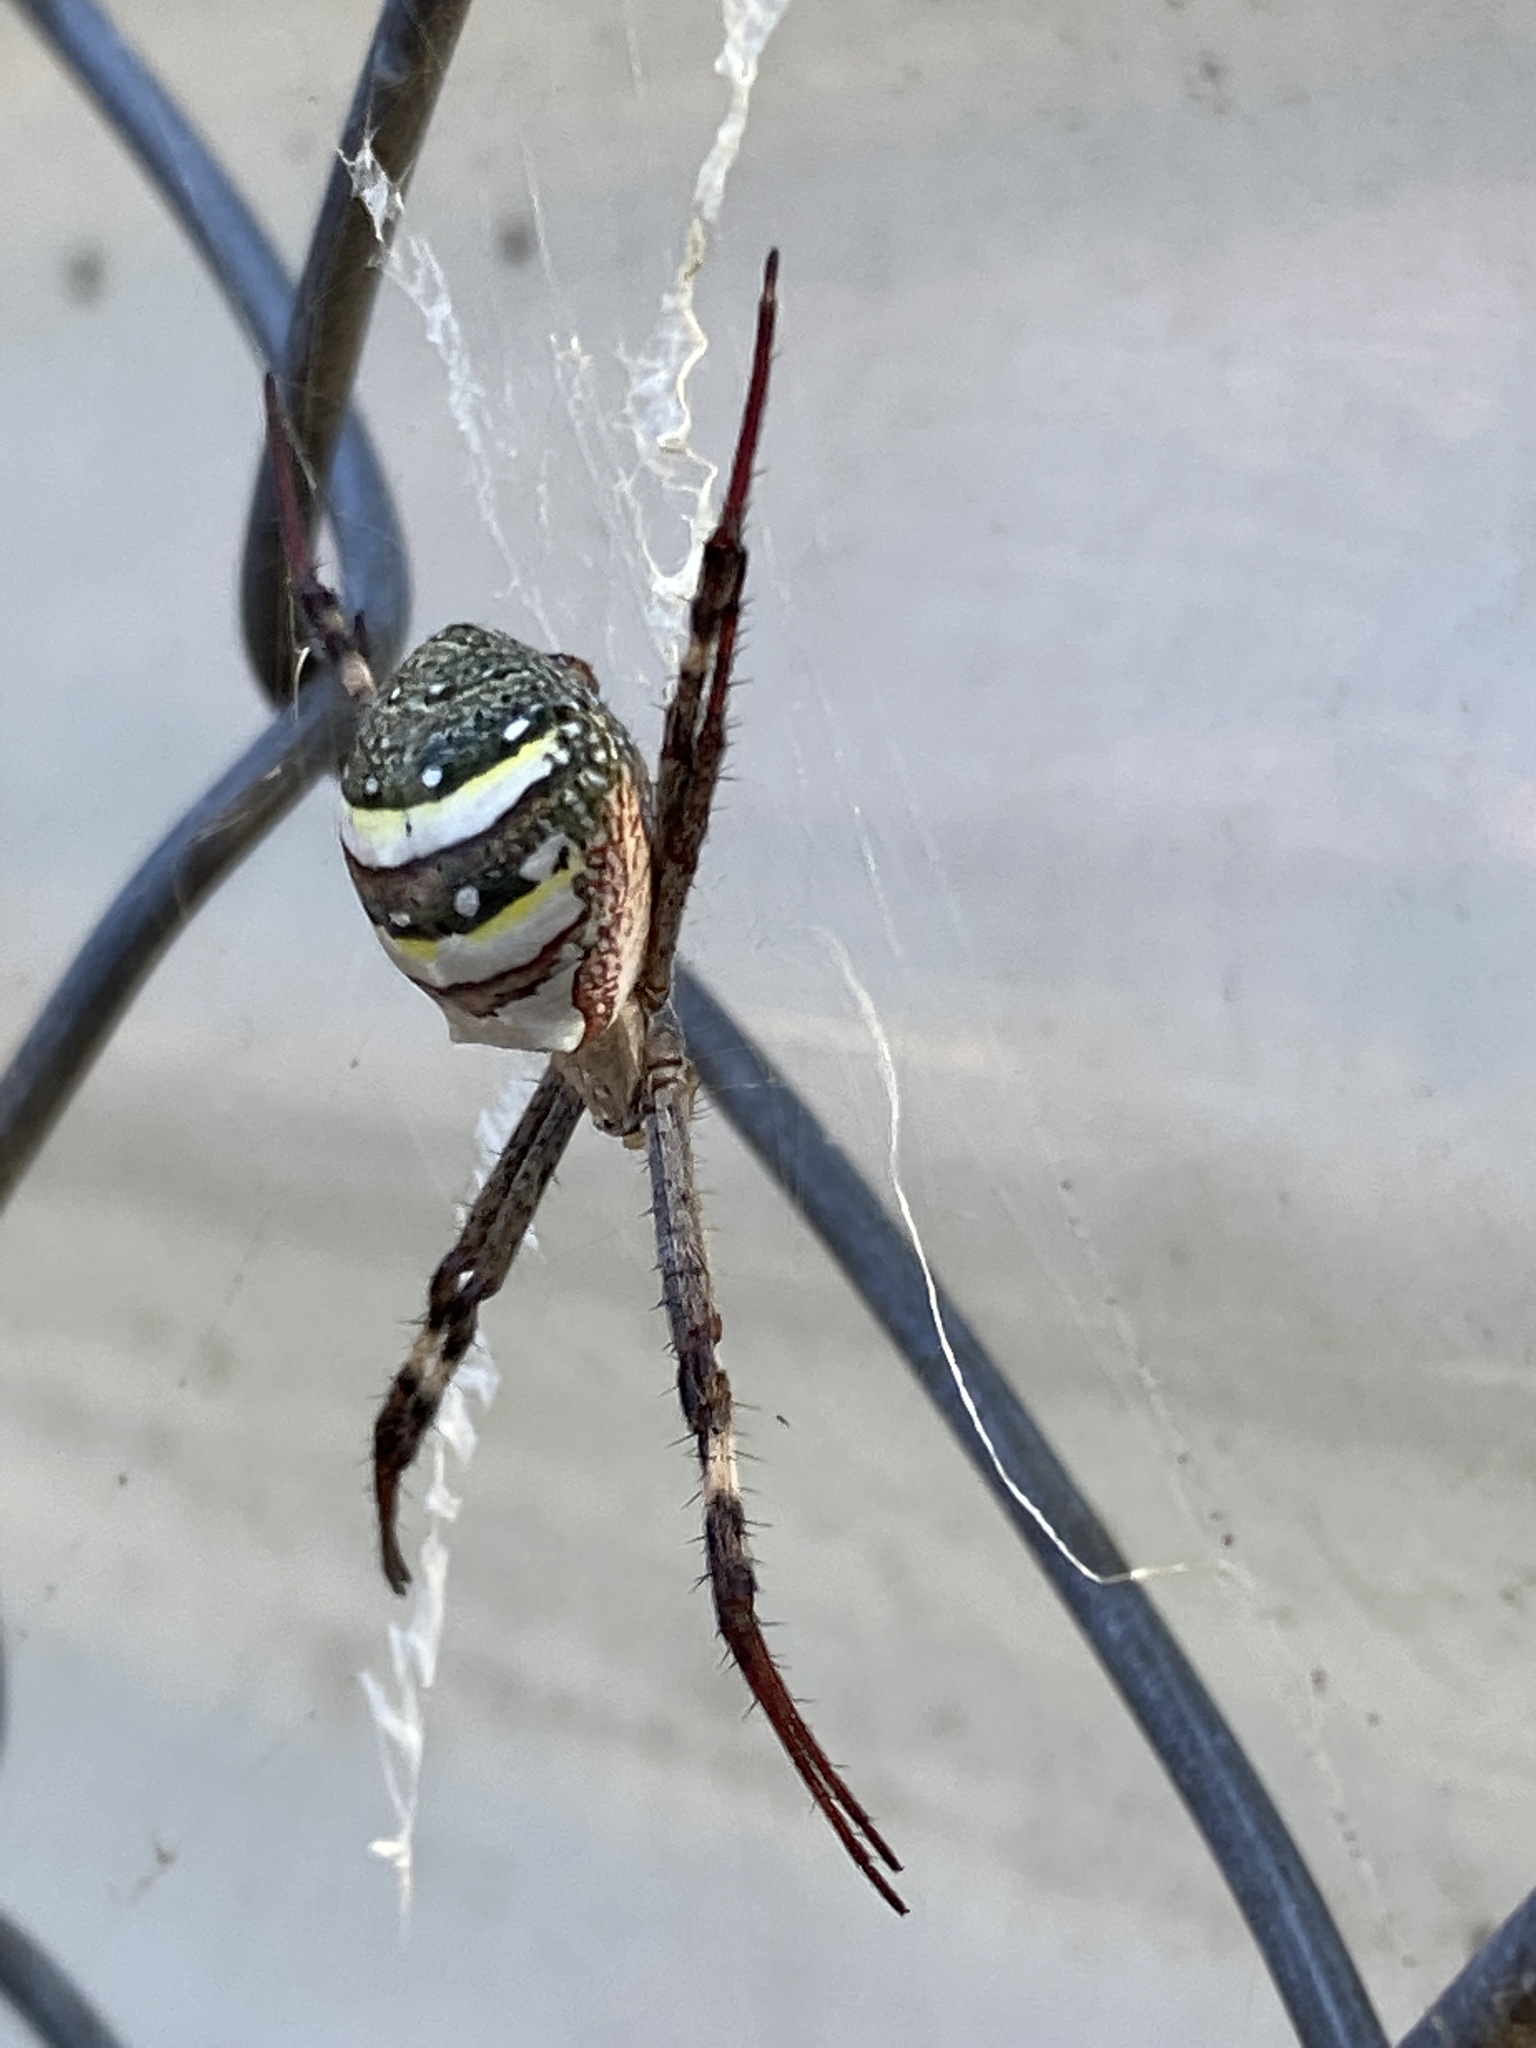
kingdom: Animalia
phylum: Arthropoda
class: Arachnida
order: Araneae
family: Araneidae
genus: Argiope
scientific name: Argiope keyserlingi
